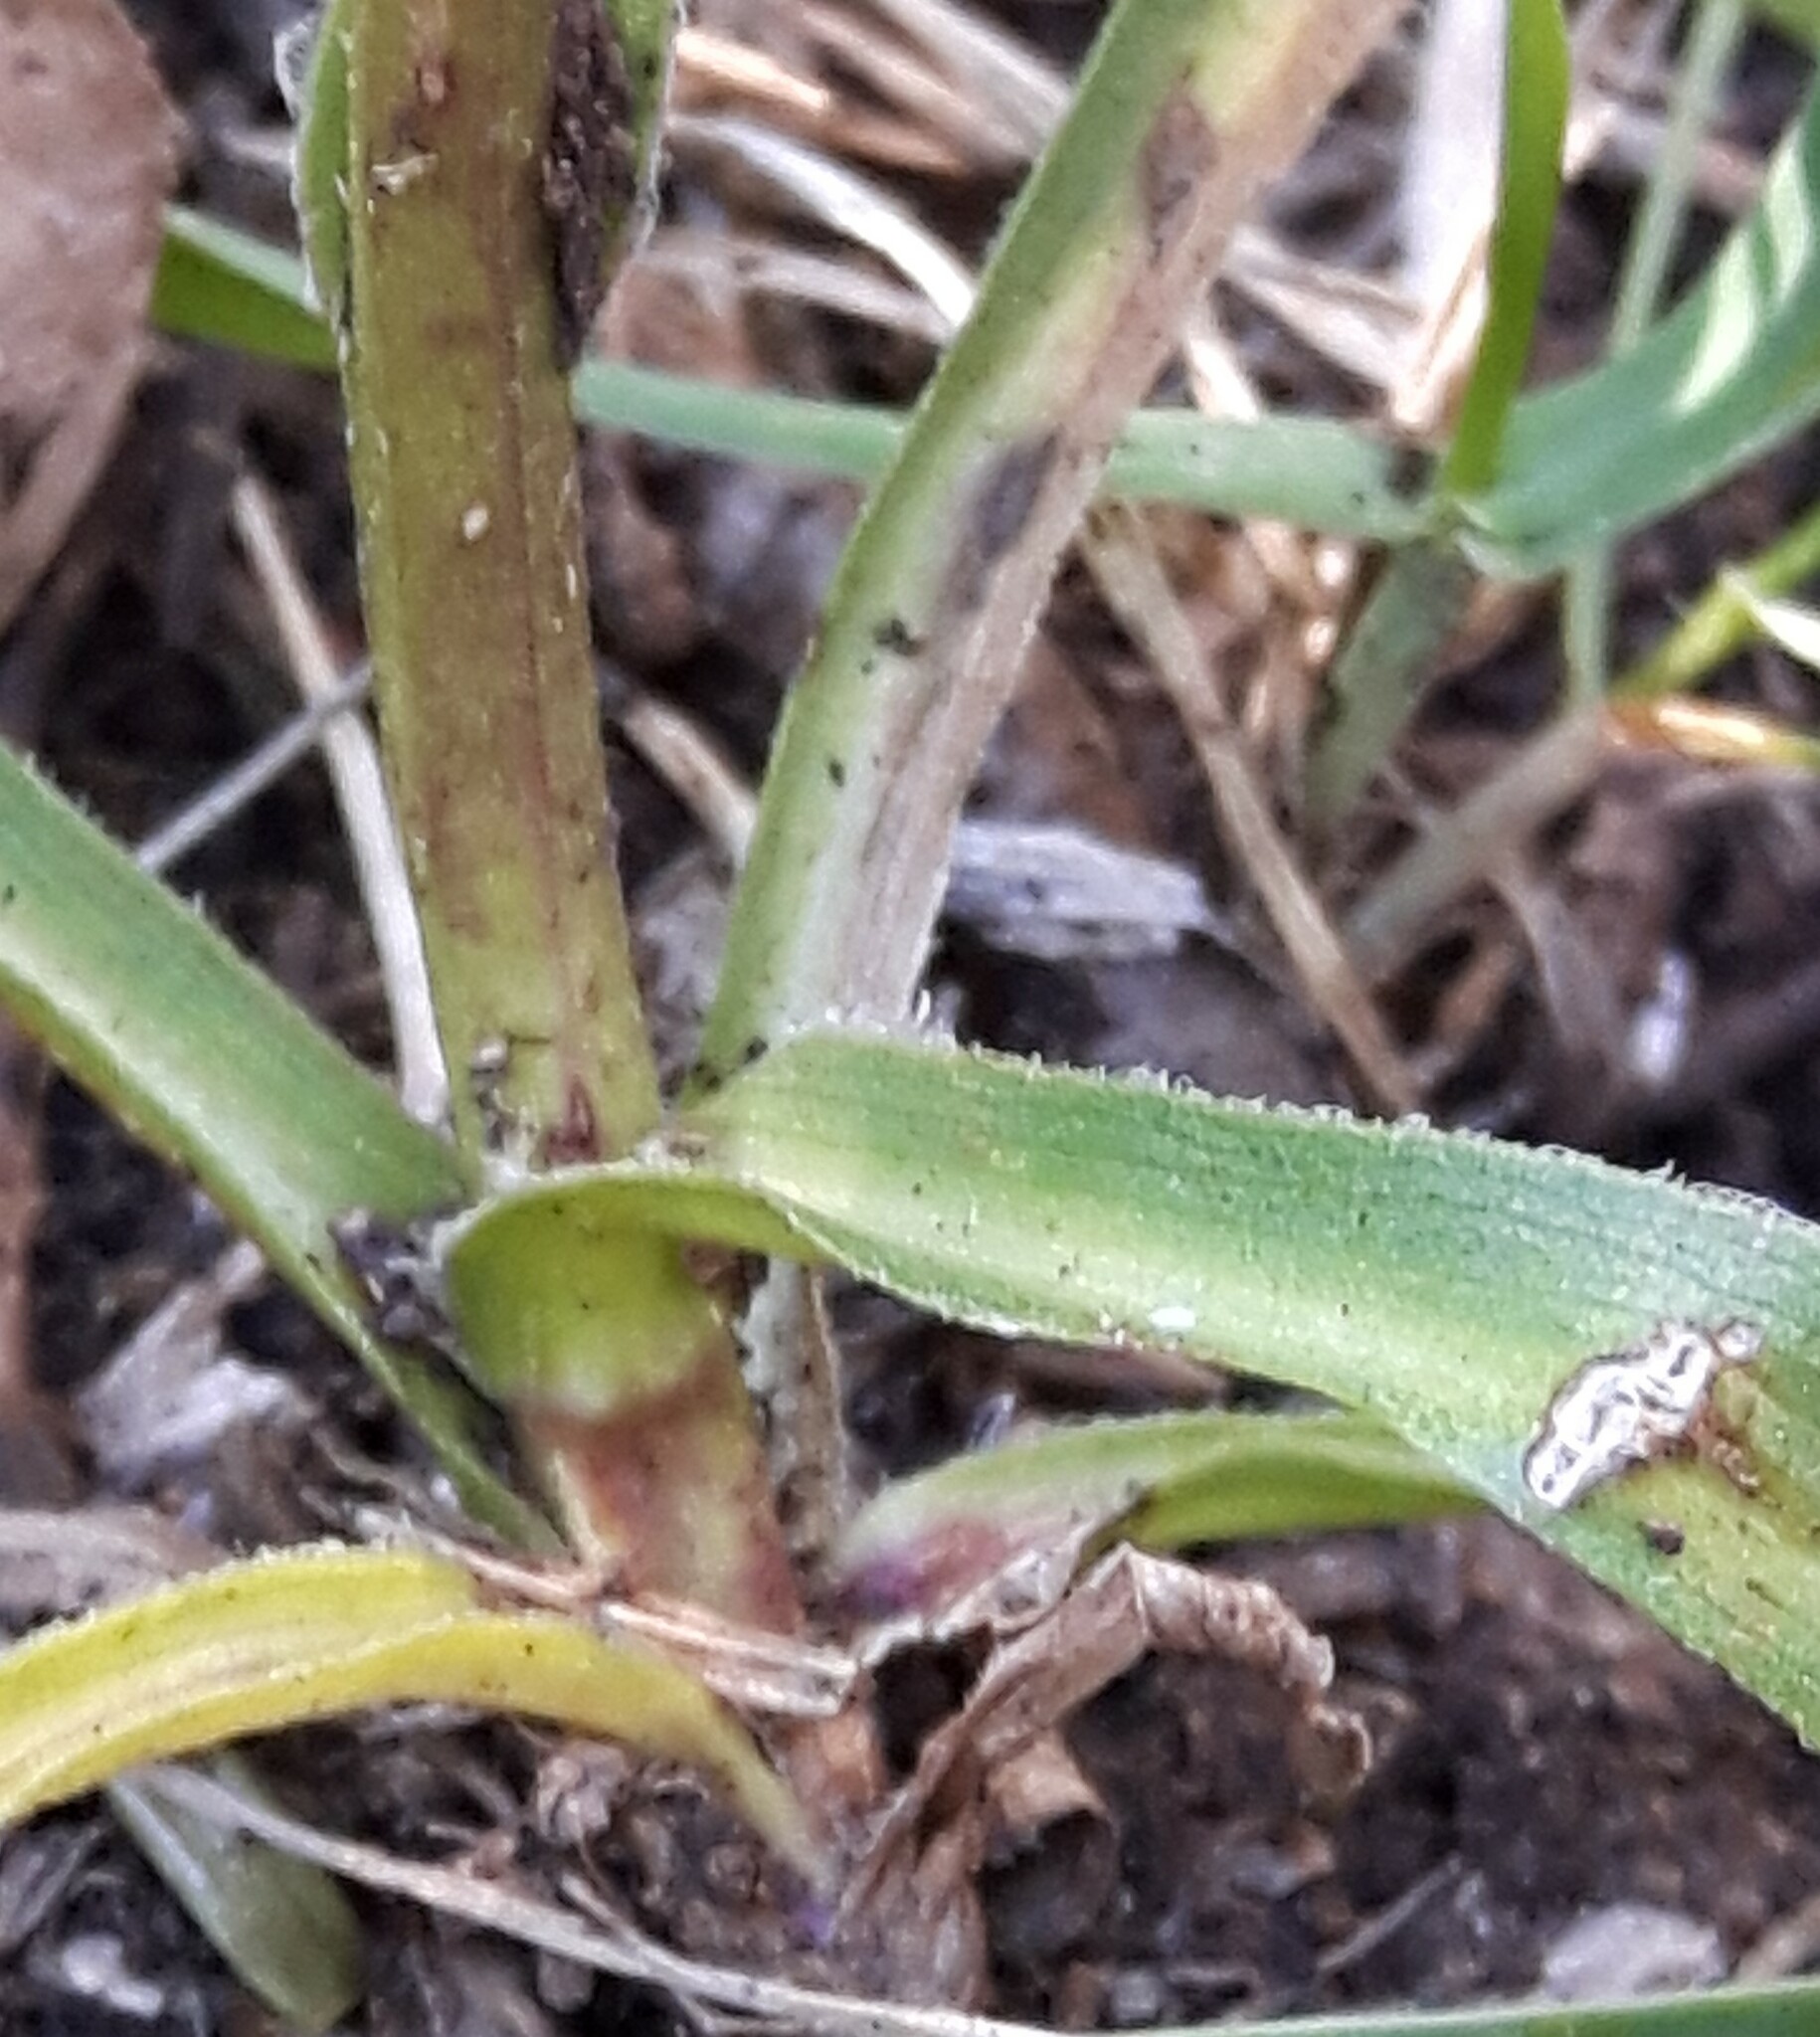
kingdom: Plantae
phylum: Tracheophyta
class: Magnoliopsida
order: Asterales
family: Asteraceae
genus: Solidago
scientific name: Solidago multiradiata
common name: Northern goldenrod
